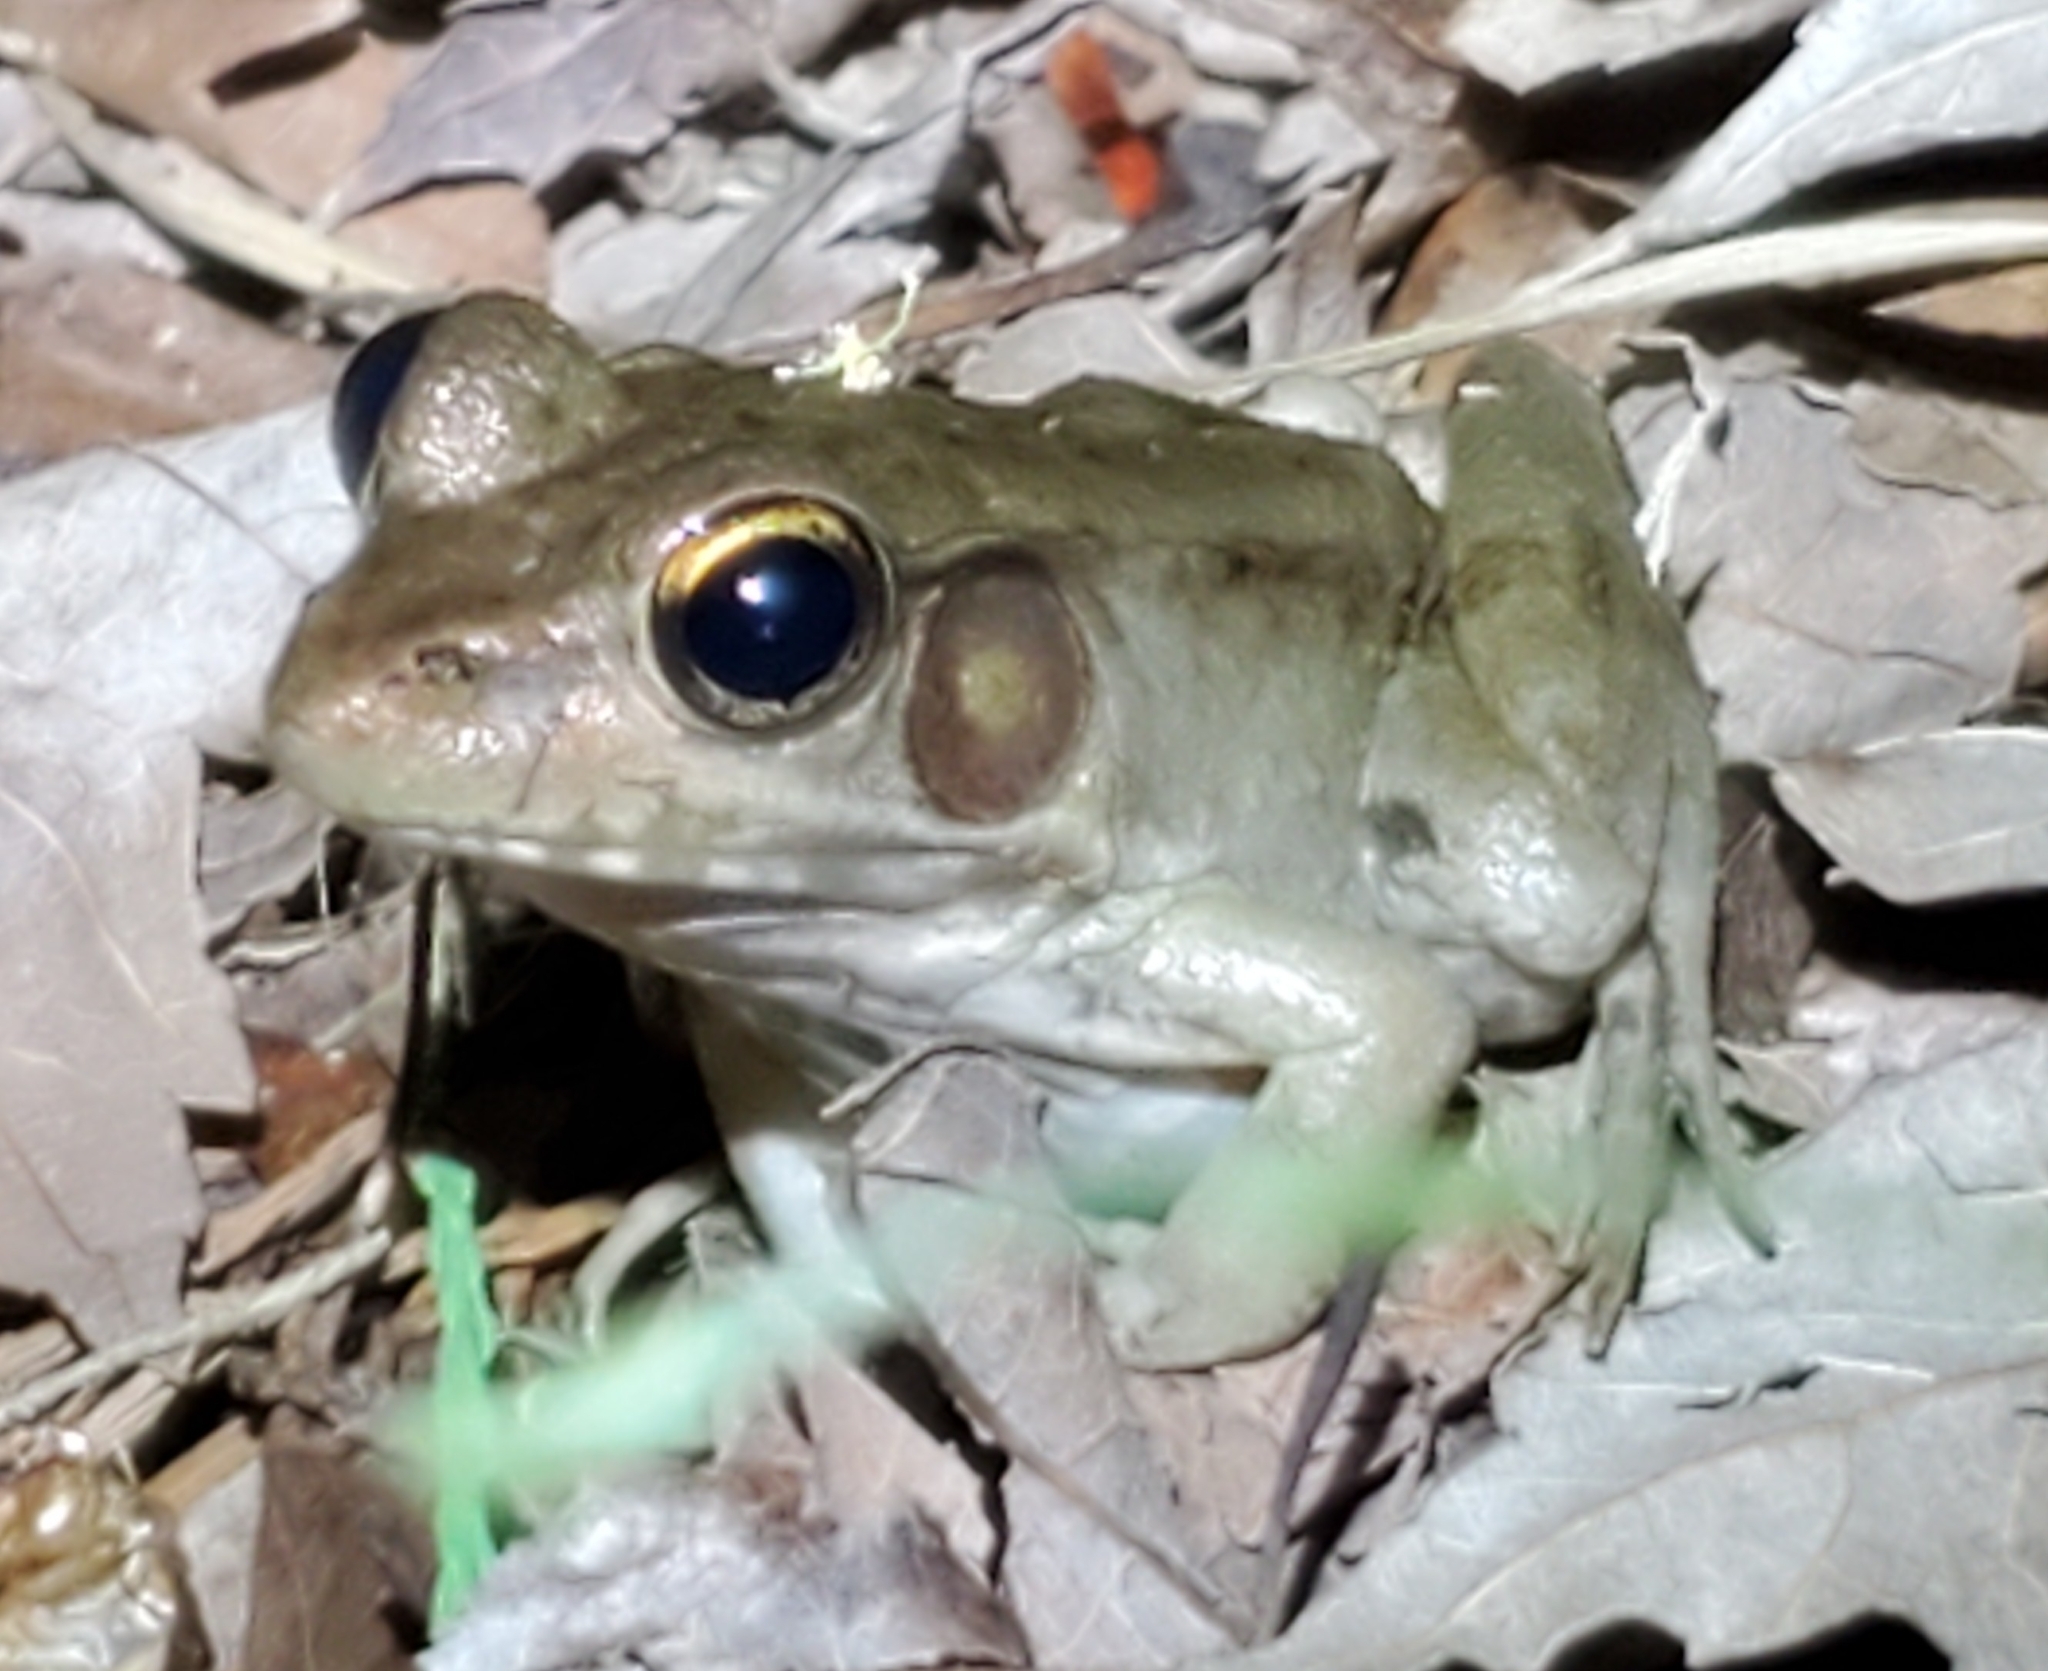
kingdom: Animalia
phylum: Chordata
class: Amphibia
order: Anura
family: Ranidae
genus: Lithobates
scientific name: Lithobates clamitans
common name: Green frog
